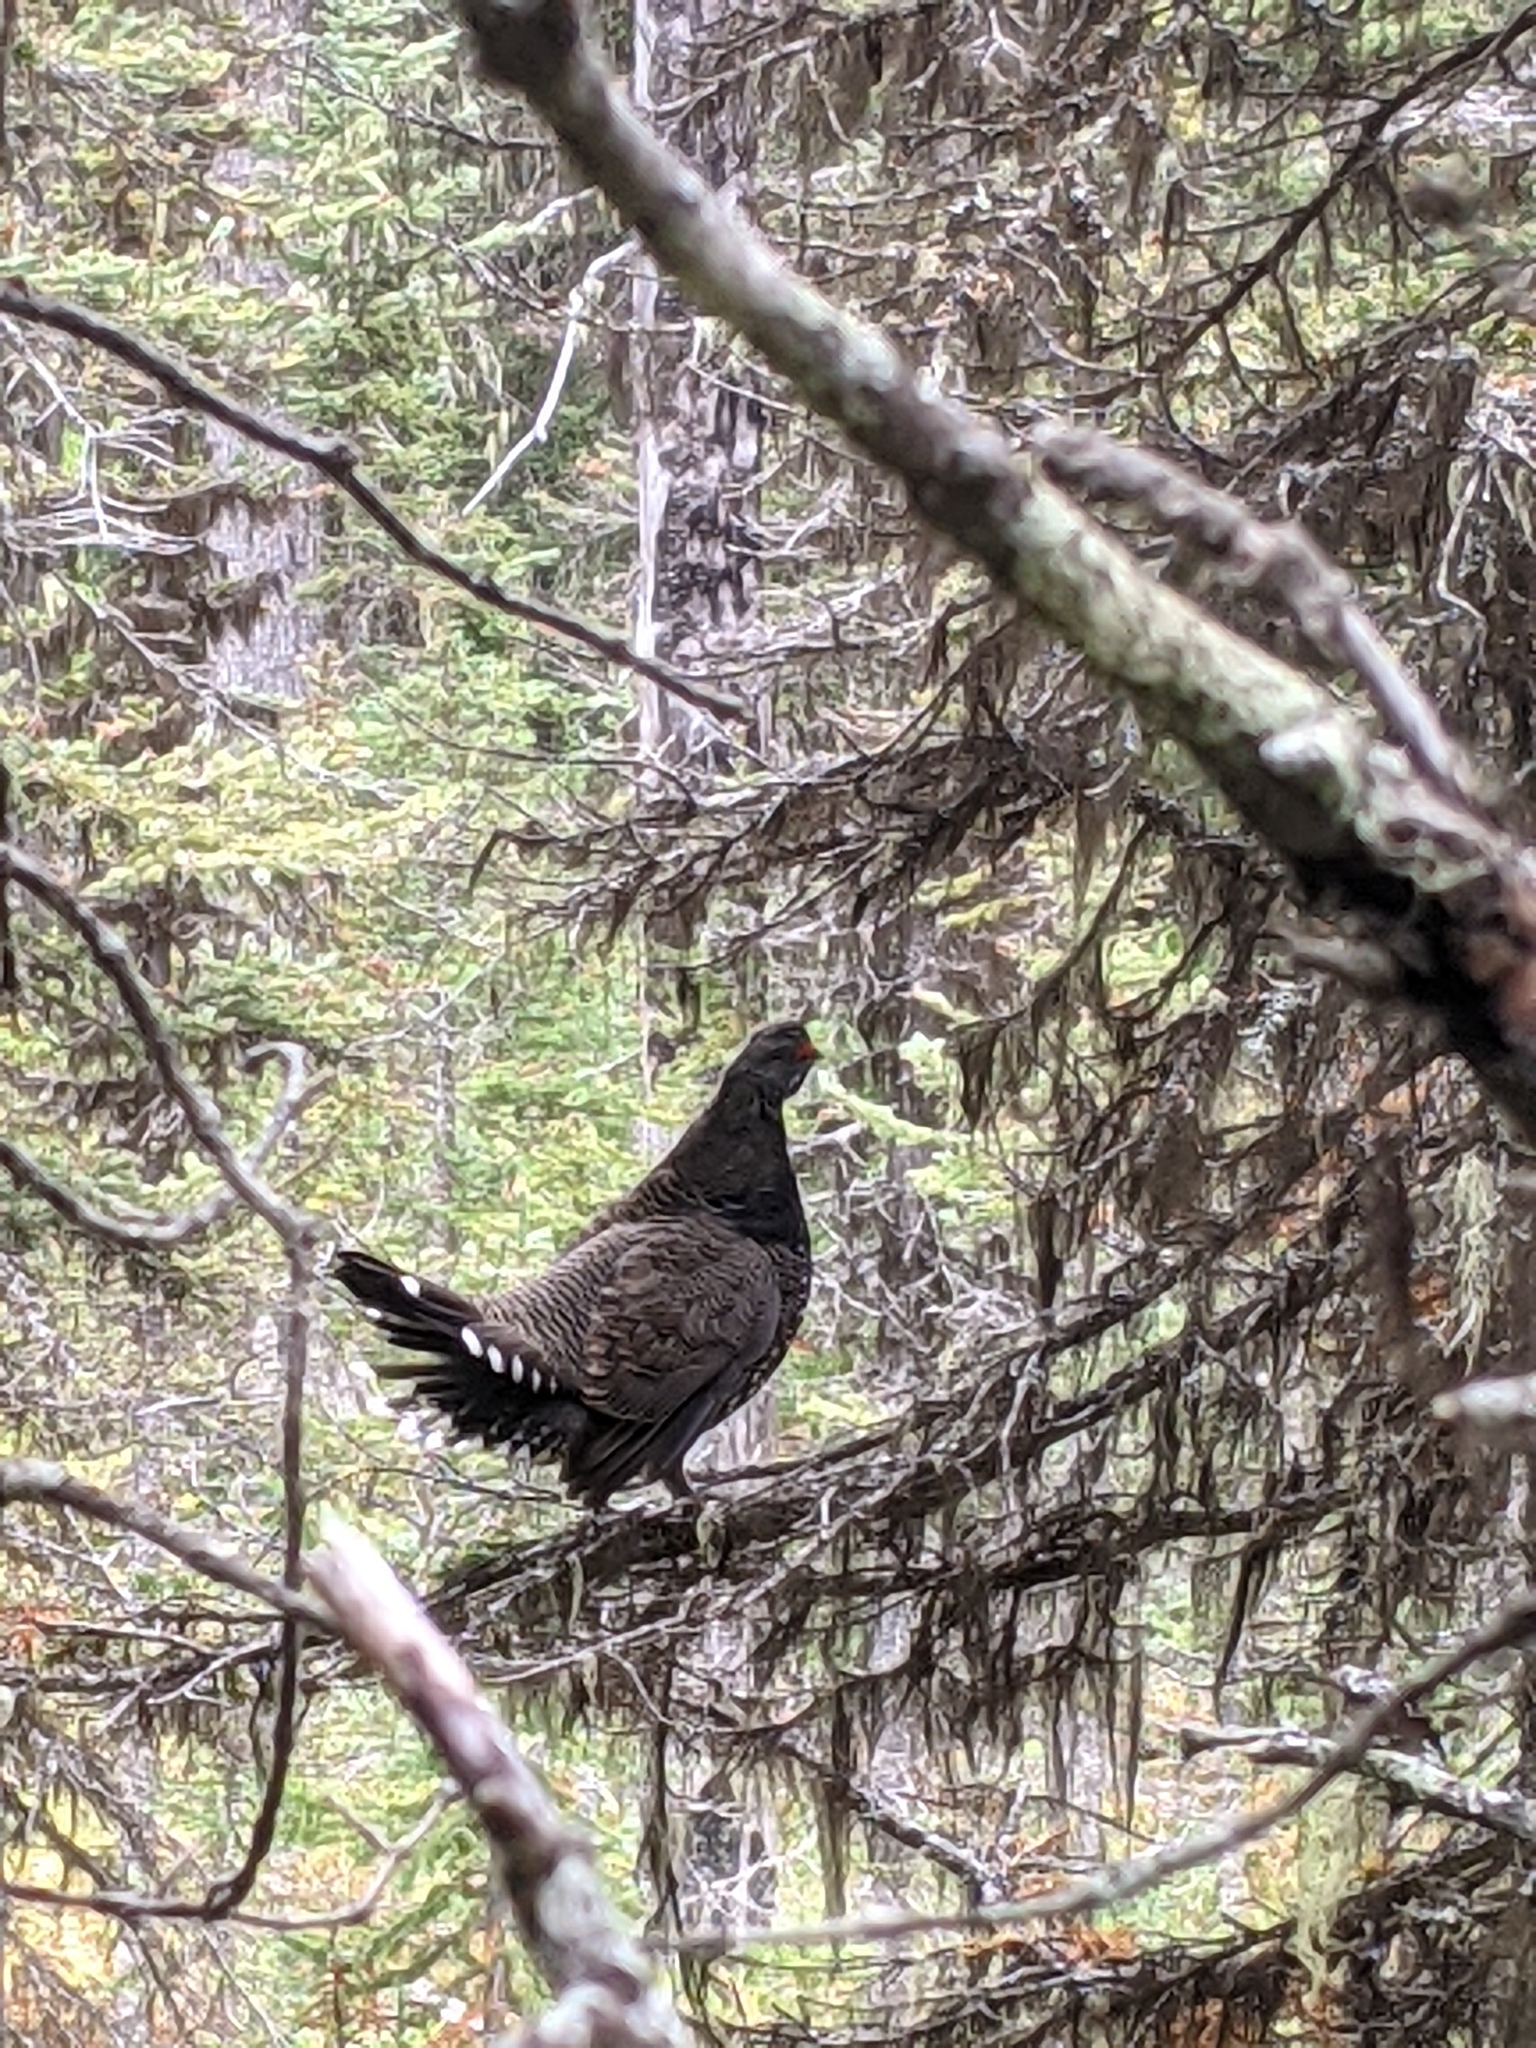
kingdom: Animalia
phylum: Chordata
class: Aves
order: Galliformes
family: Phasianidae
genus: Canachites
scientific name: Canachites canadensis
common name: Spruce grouse
